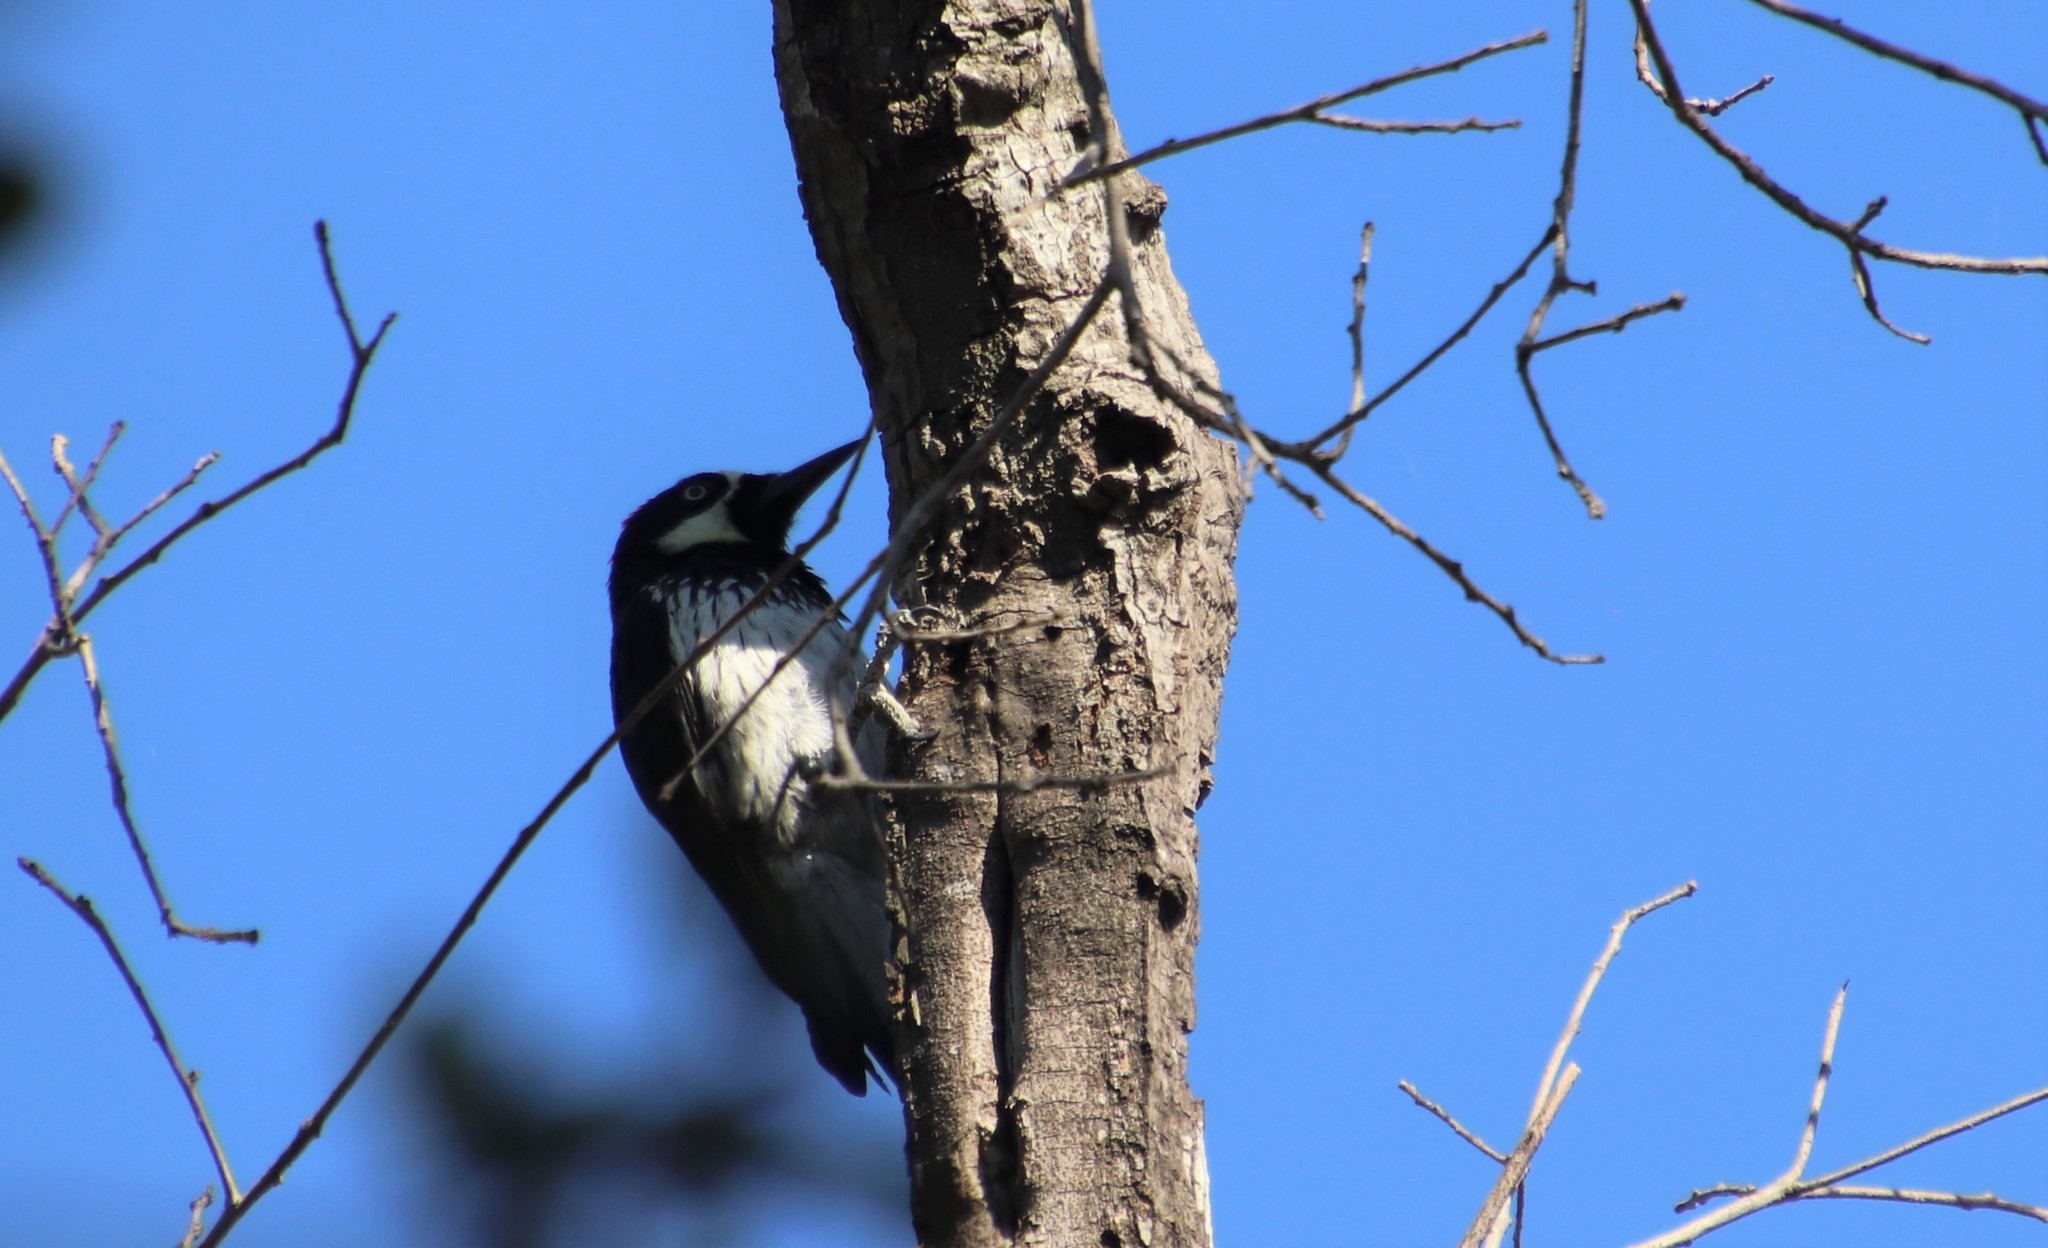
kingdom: Animalia
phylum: Chordata
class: Aves
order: Piciformes
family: Picidae
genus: Melanerpes
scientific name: Melanerpes formicivorus
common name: Acorn woodpecker
